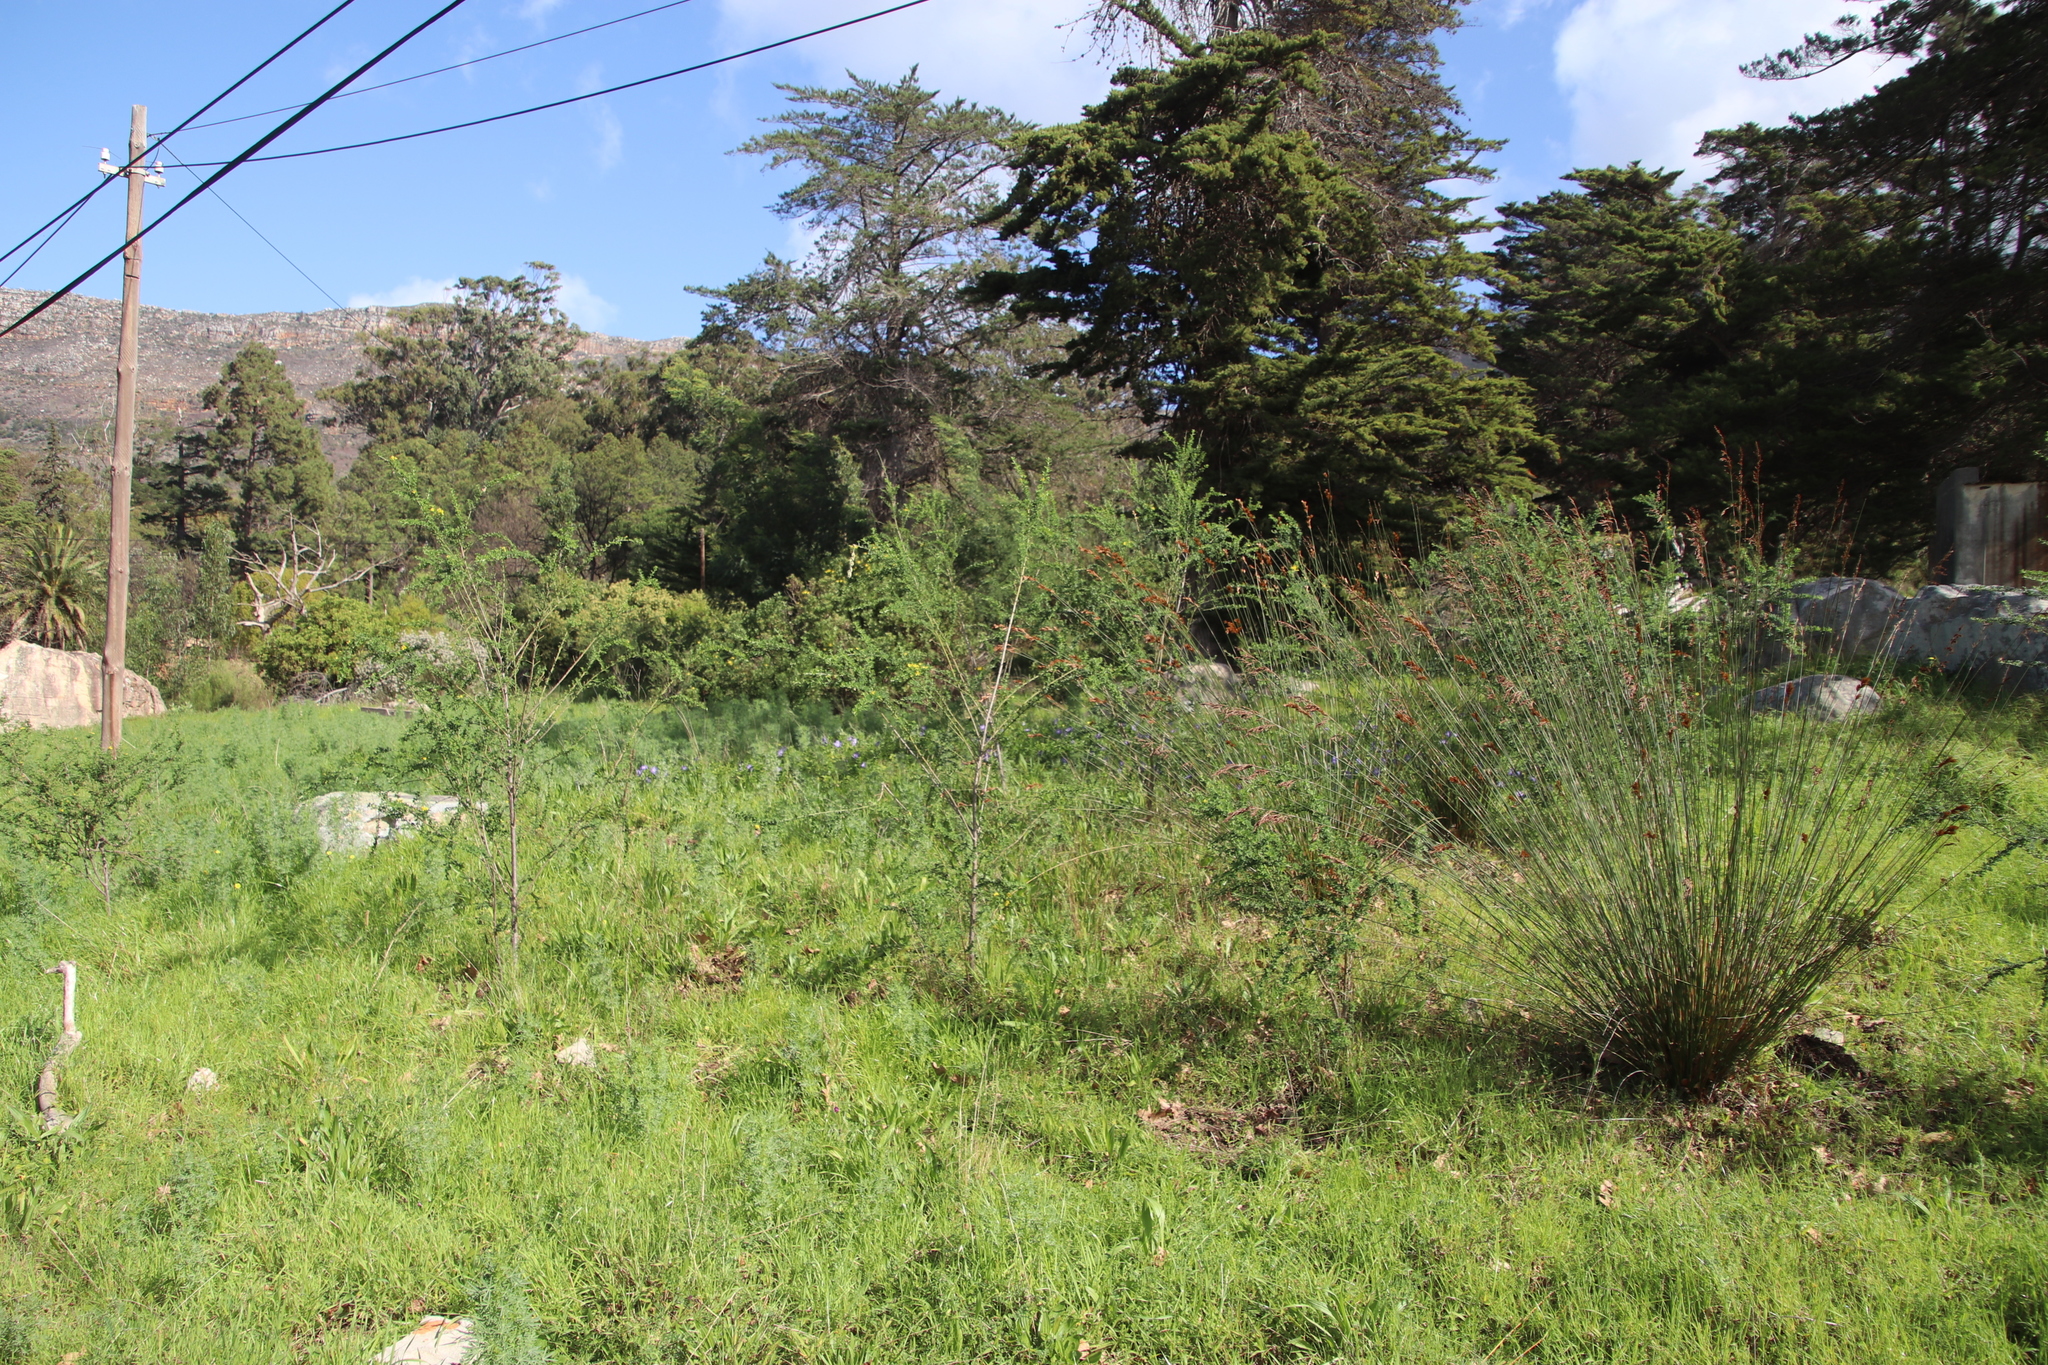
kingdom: Plantae
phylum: Tracheophyta
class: Magnoliopsida
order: Fabales
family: Fabaceae
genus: Genista
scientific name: Genista monspessulana
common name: Montpellier broom
